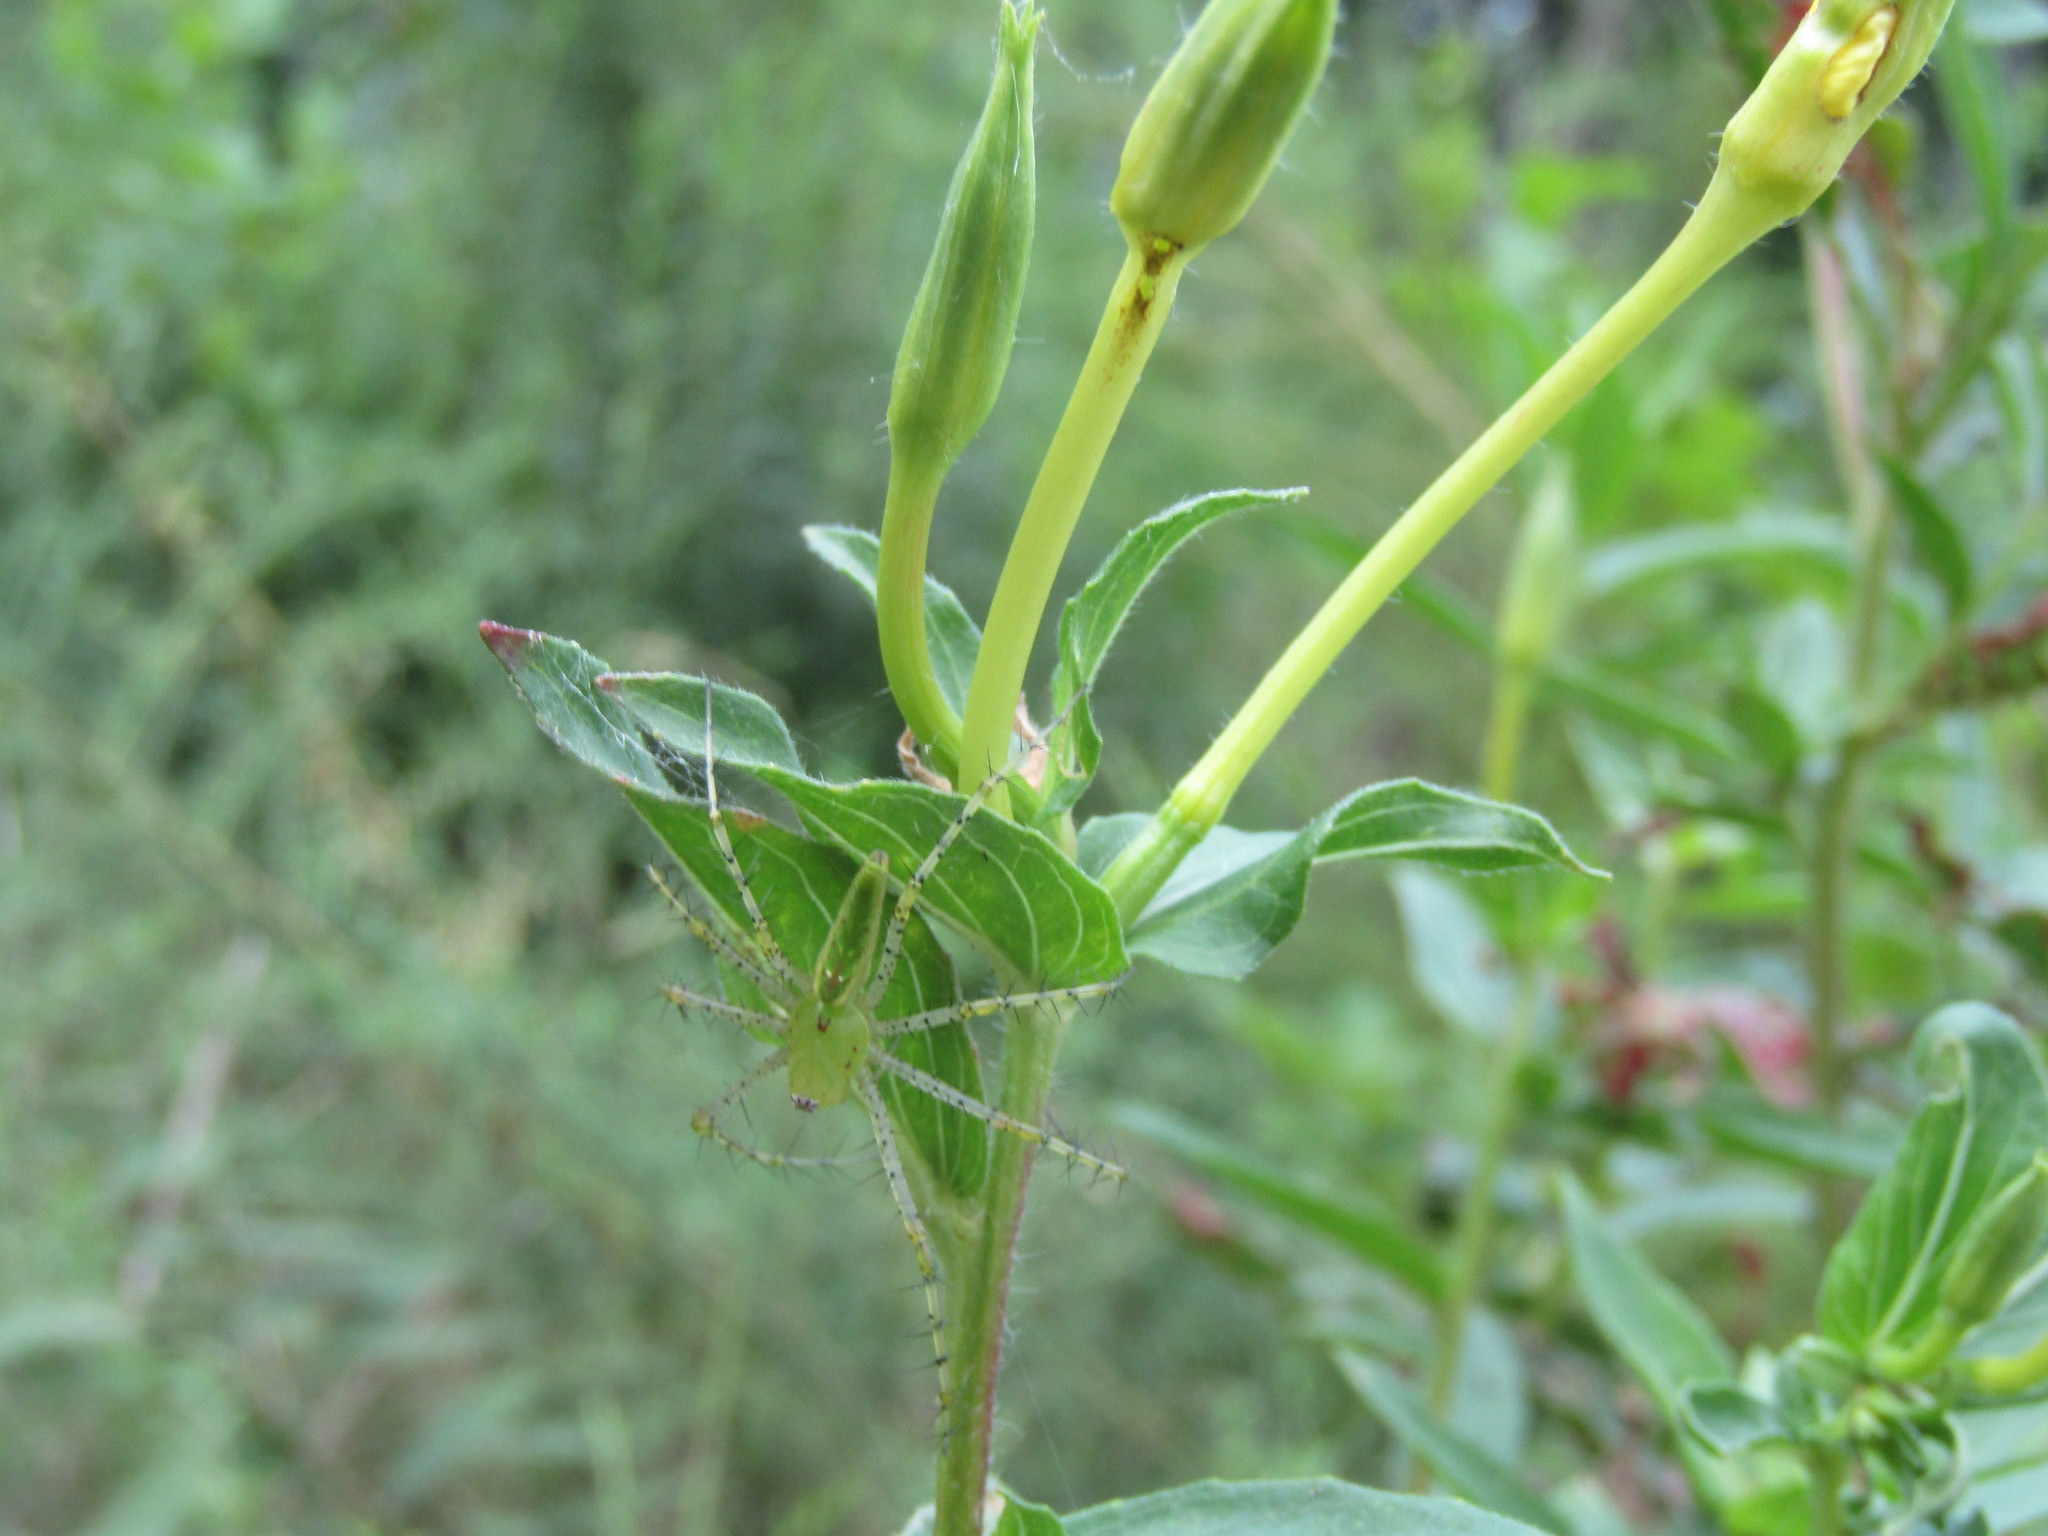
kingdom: Animalia
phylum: Arthropoda
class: Arachnida
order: Araneae
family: Oxyopidae
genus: Peucetia
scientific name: Peucetia viridans
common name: Lynx spiders
